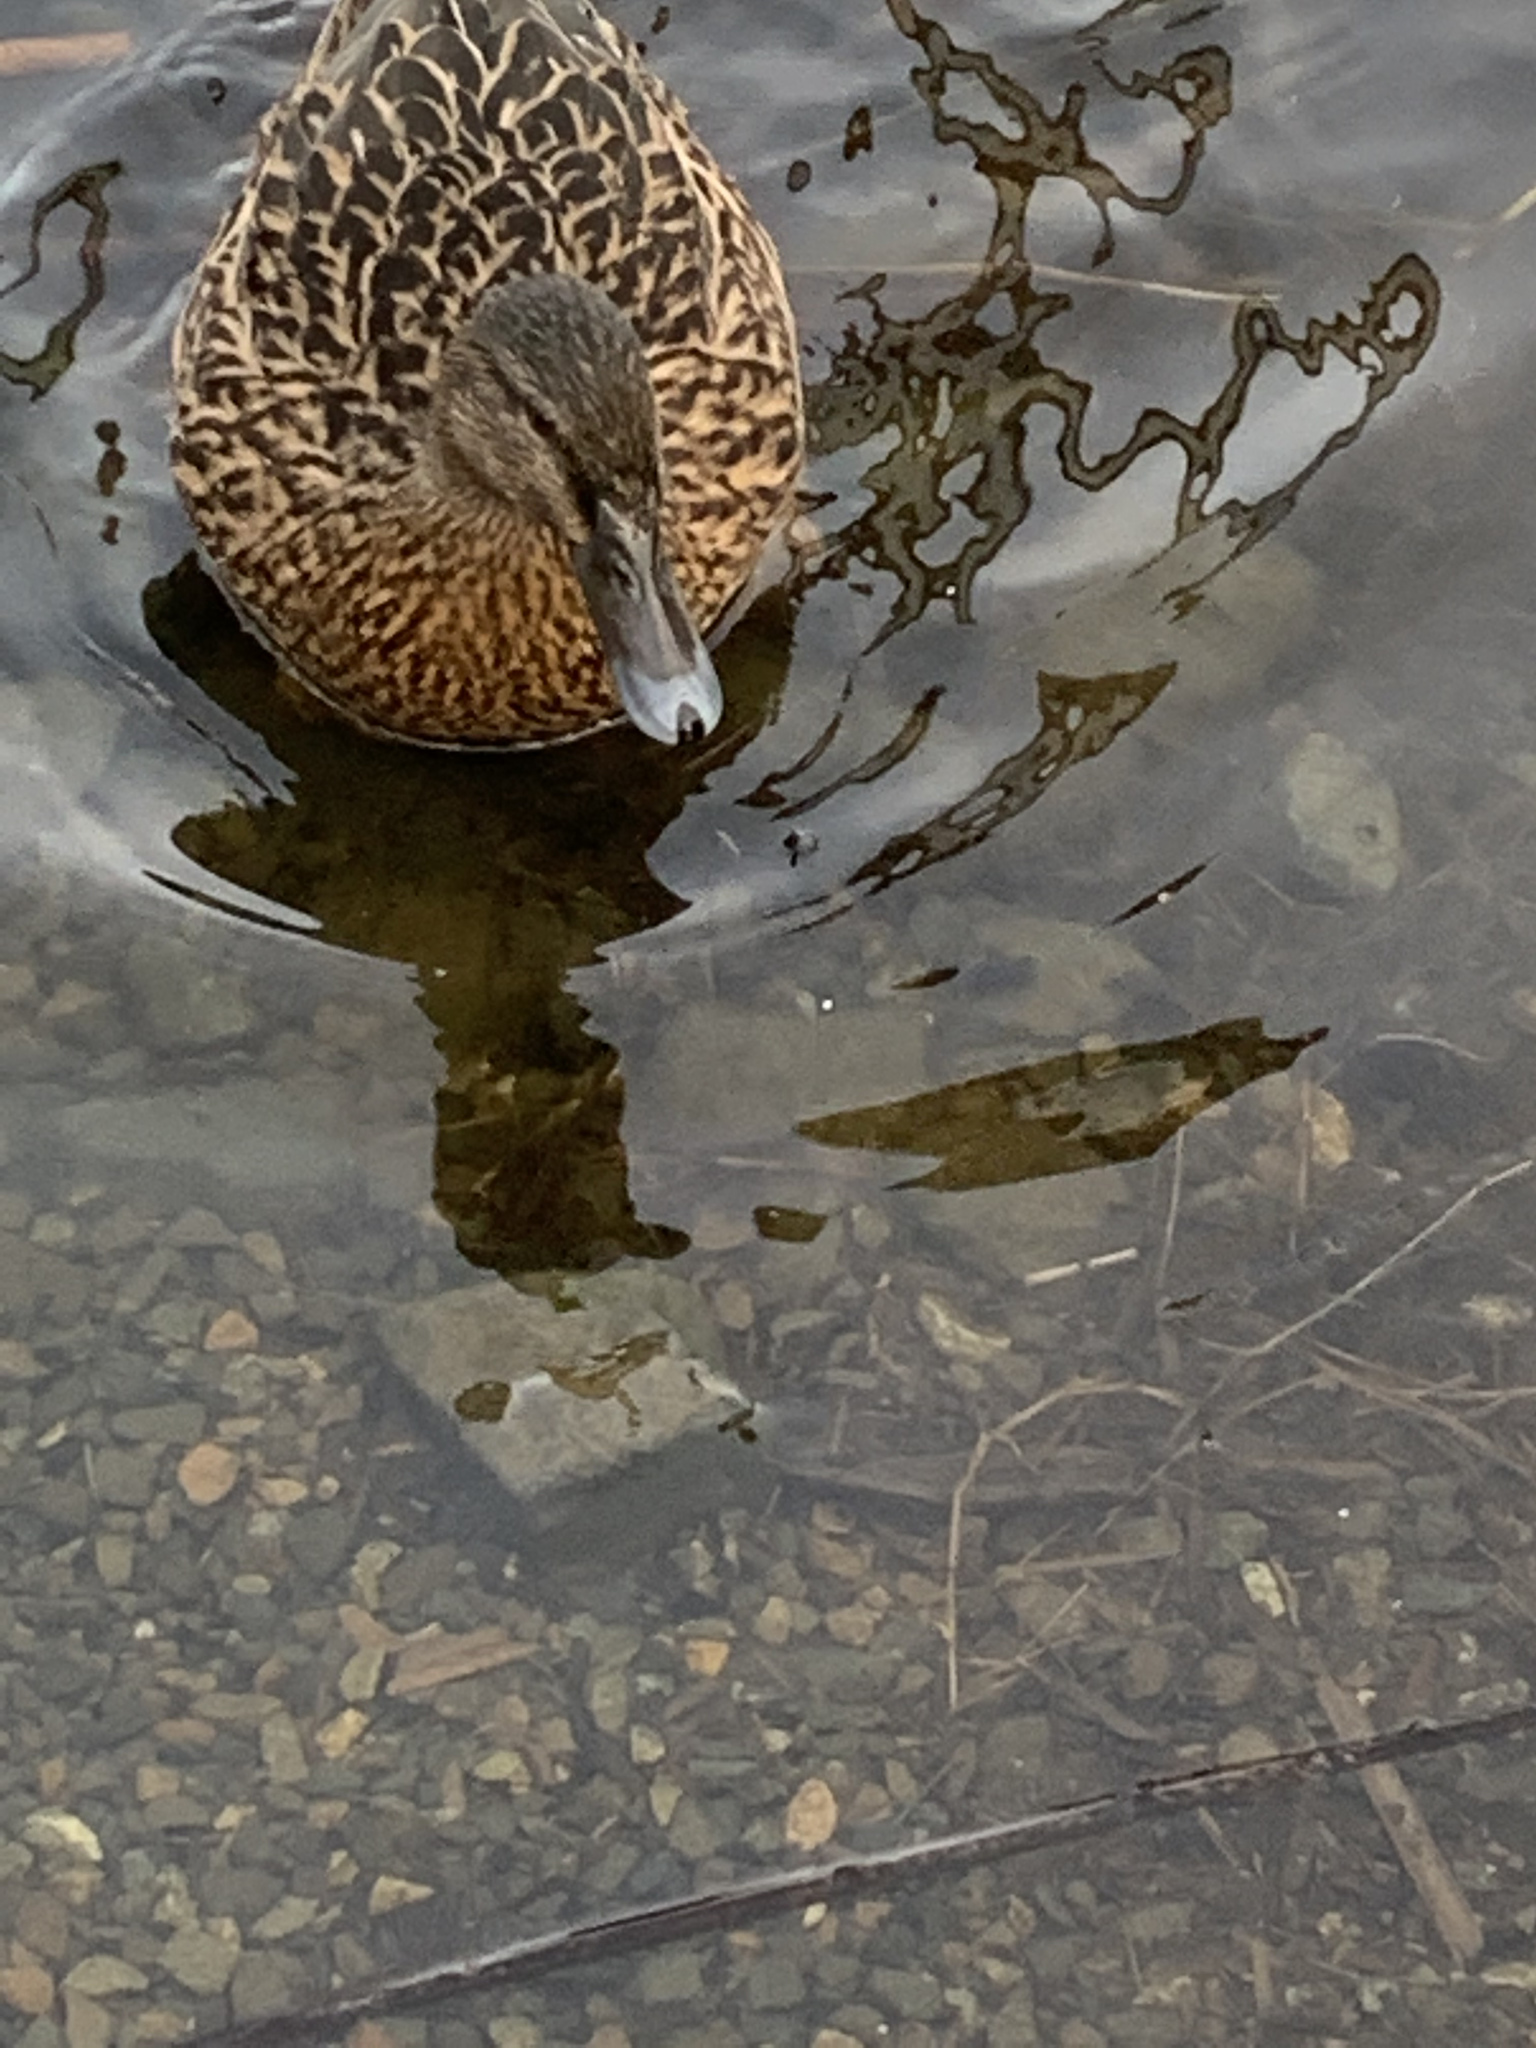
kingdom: Animalia
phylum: Chordata
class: Aves
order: Anseriformes
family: Anatidae
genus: Anas
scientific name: Anas platyrhynchos
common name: Mallard
